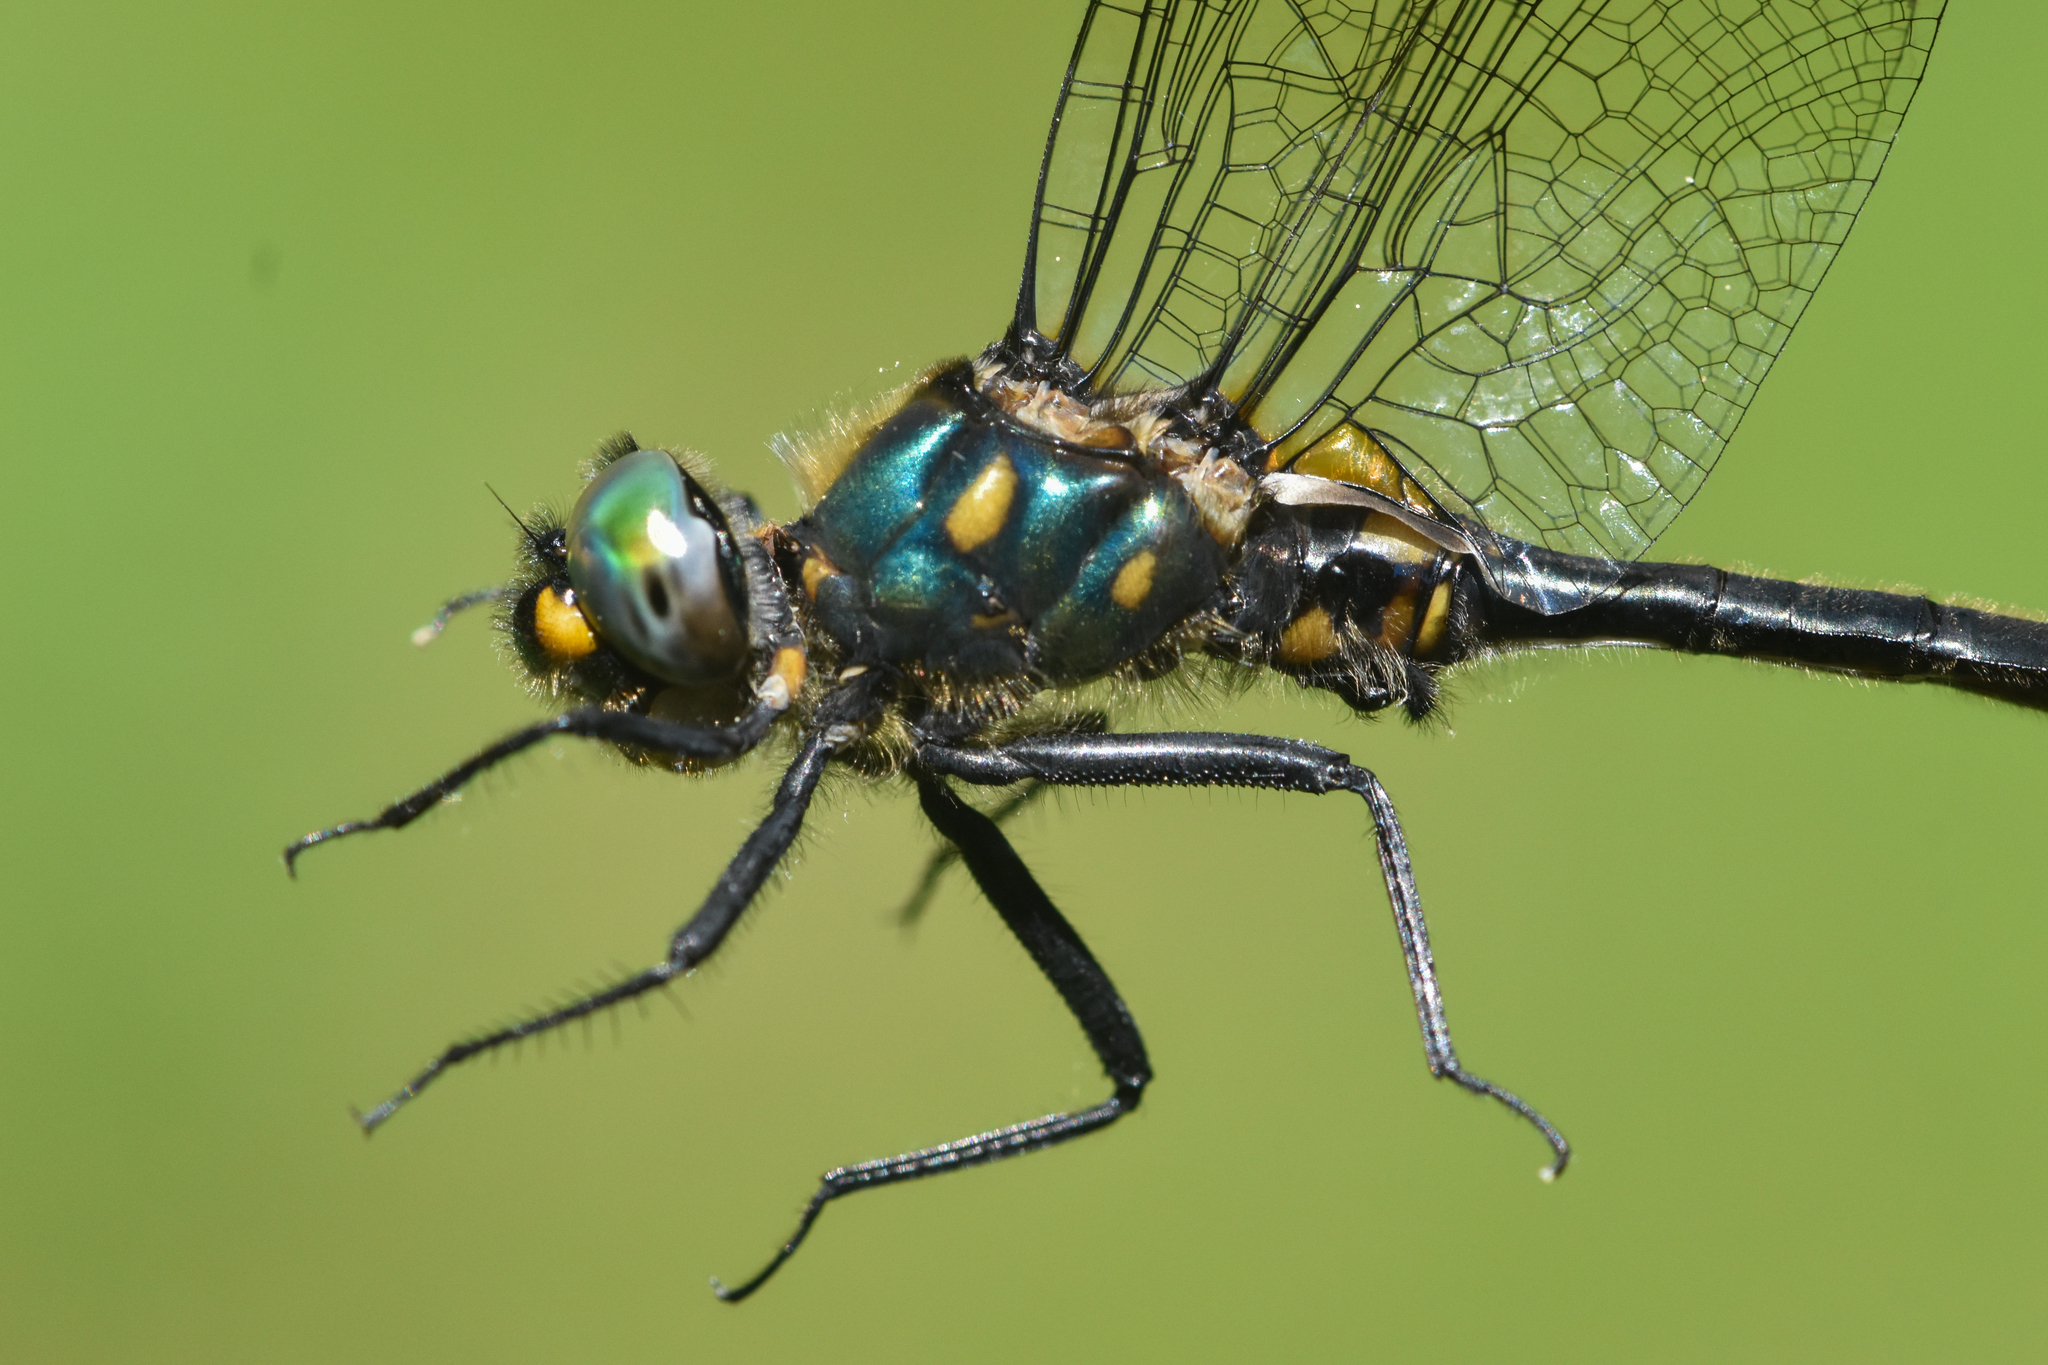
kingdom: Animalia
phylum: Arthropoda
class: Insecta
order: Odonata
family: Corduliidae
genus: Somatochlora
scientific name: Somatochlora semicircularis
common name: Mountain emerald
